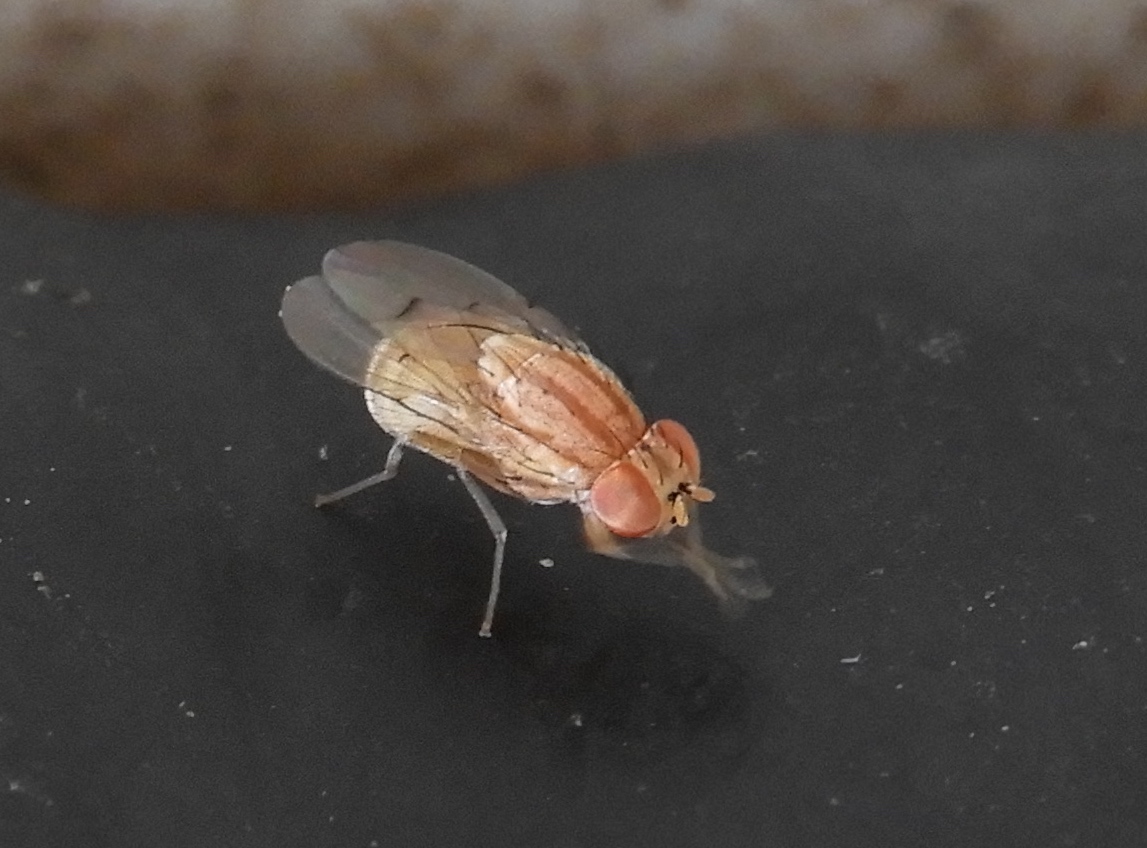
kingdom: Animalia
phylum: Arthropoda
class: Insecta
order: Diptera
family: Lauxaniidae
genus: Poecilominettia
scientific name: Poecilominettia picticornis
